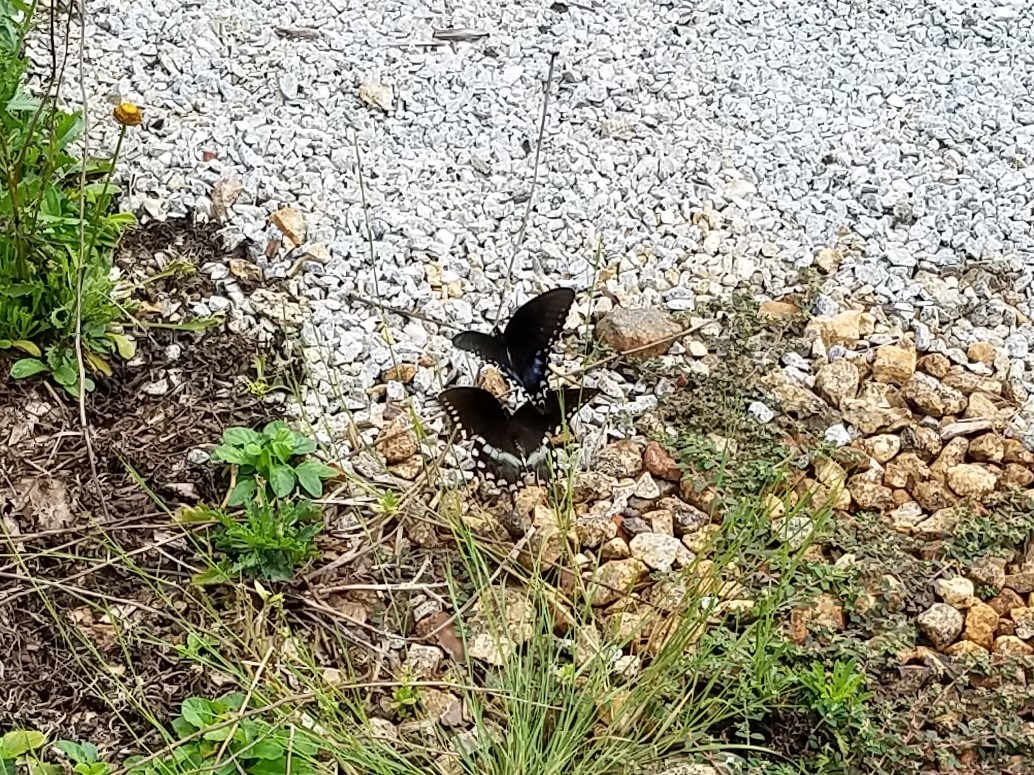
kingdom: Animalia
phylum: Arthropoda
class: Insecta
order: Lepidoptera
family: Papilionidae
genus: Papilio
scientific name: Papilio troilus
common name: Spicebush swallowtail
